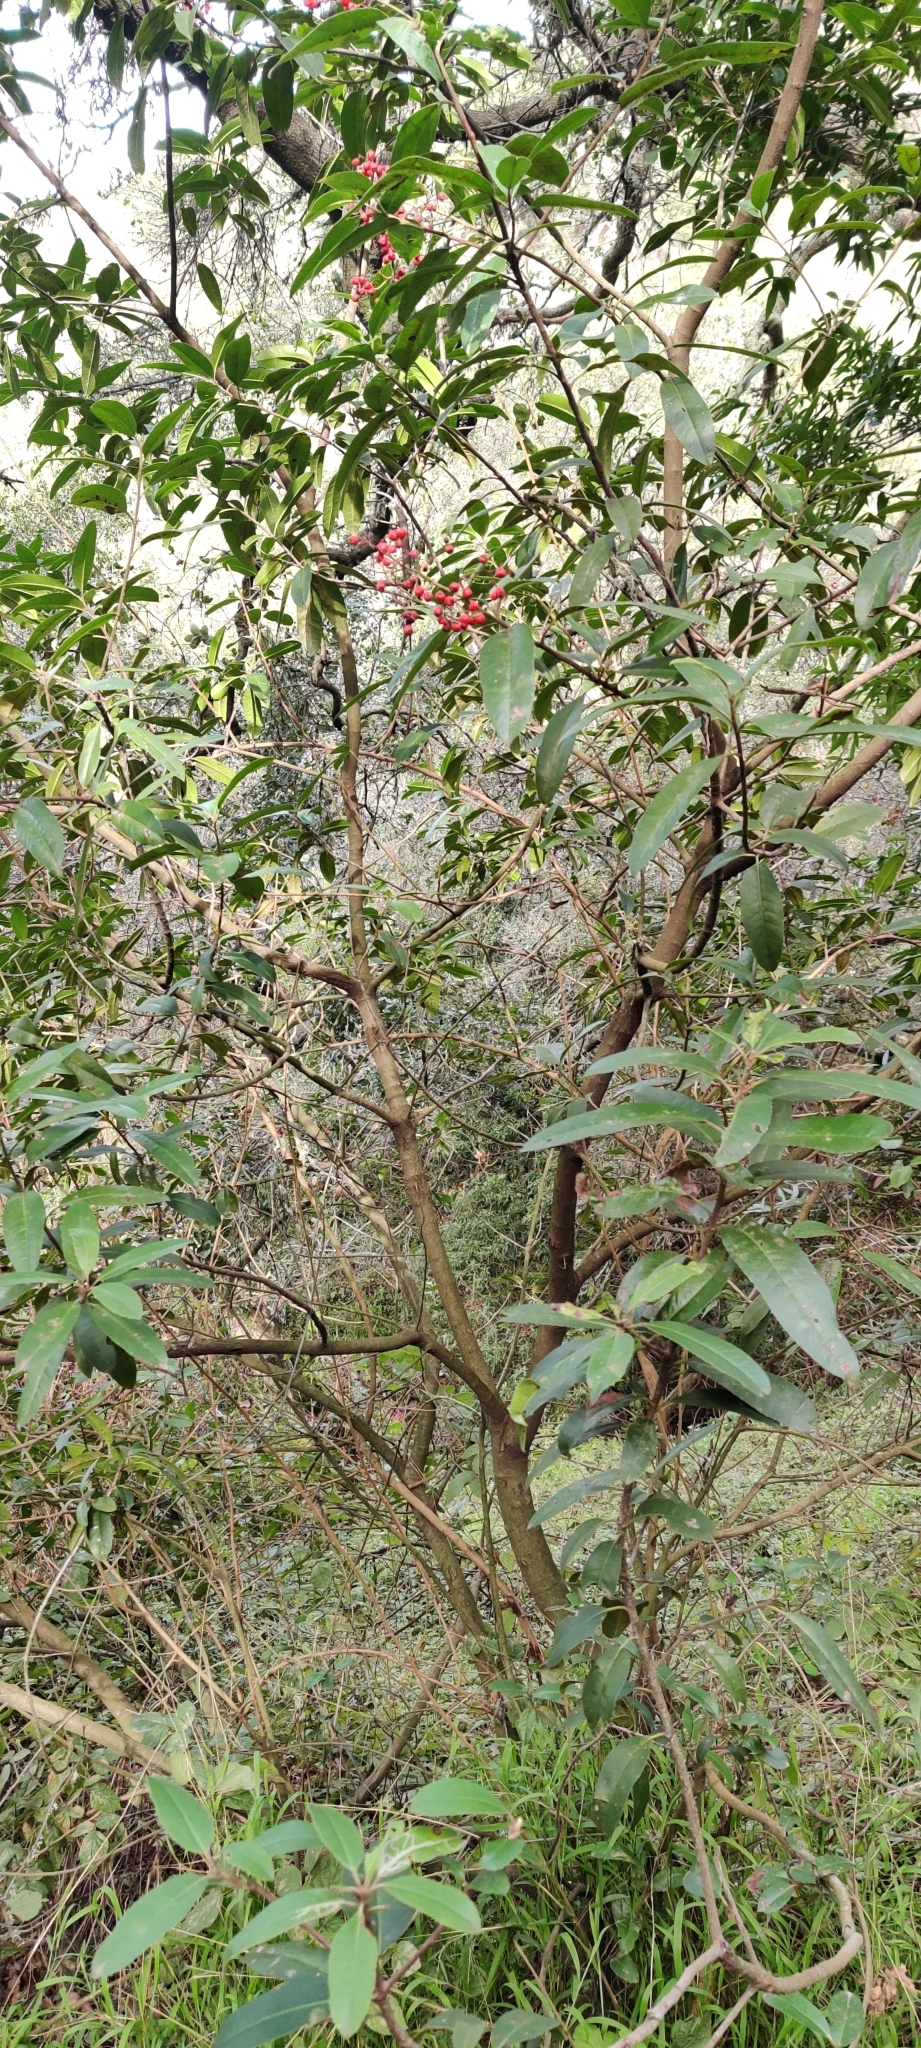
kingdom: Plantae
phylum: Tracheophyta
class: Magnoliopsida
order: Rosales
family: Rosaceae
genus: Heteromeles
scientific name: Heteromeles arbutifolia
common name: California-holly
